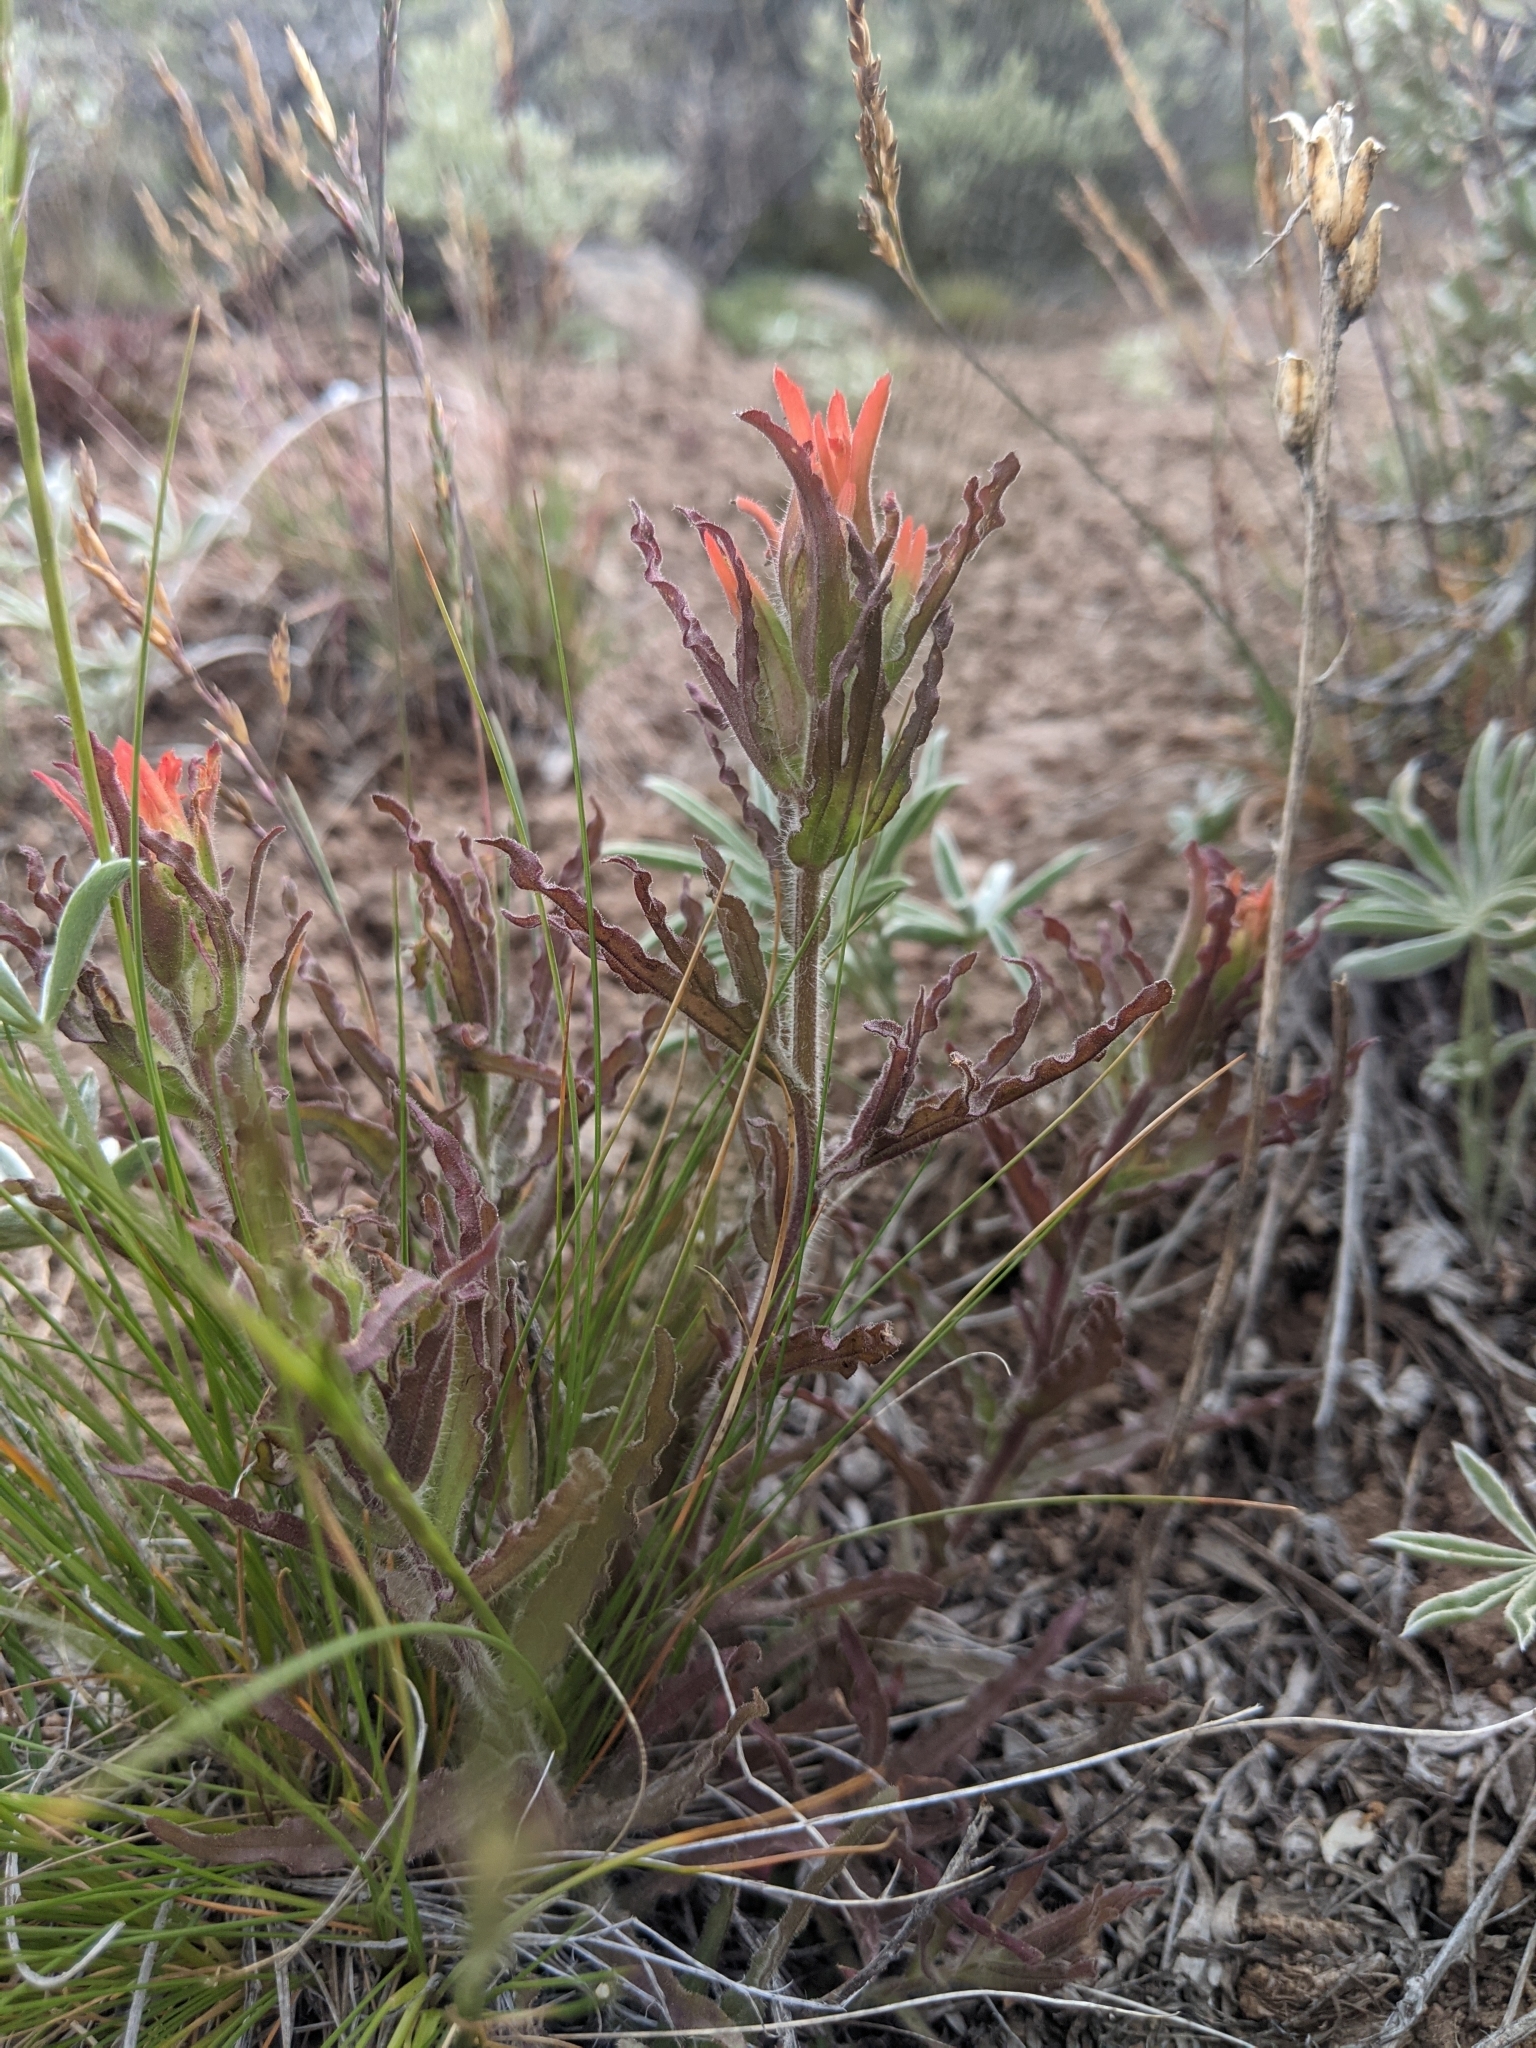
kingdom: Plantae
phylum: Tracheophyta
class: Magnoliopsida
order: Lamiales
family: Orobanchaceae
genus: Castilleja
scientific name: Castilleja applegatei
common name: Wavy-leaf paintbrush
